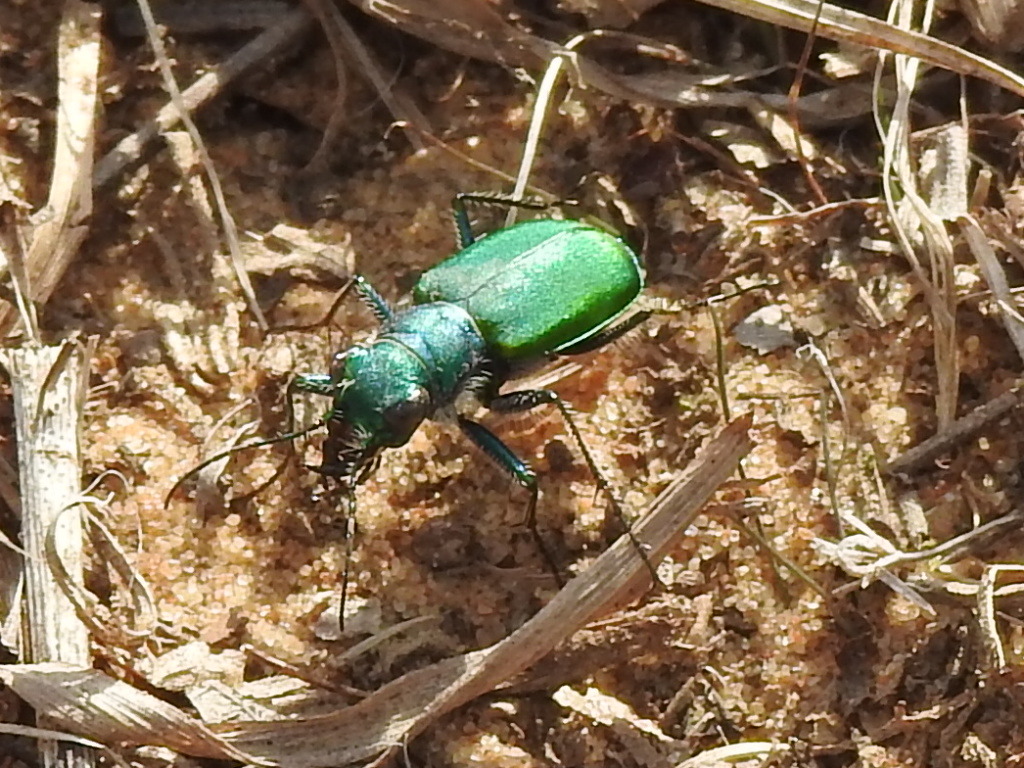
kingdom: Animalia
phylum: Arthropoda
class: Insecta
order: Coleoptera
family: Carabidae
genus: Cicindela
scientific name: Cicindela scutellaris
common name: Festive tiger beetle
